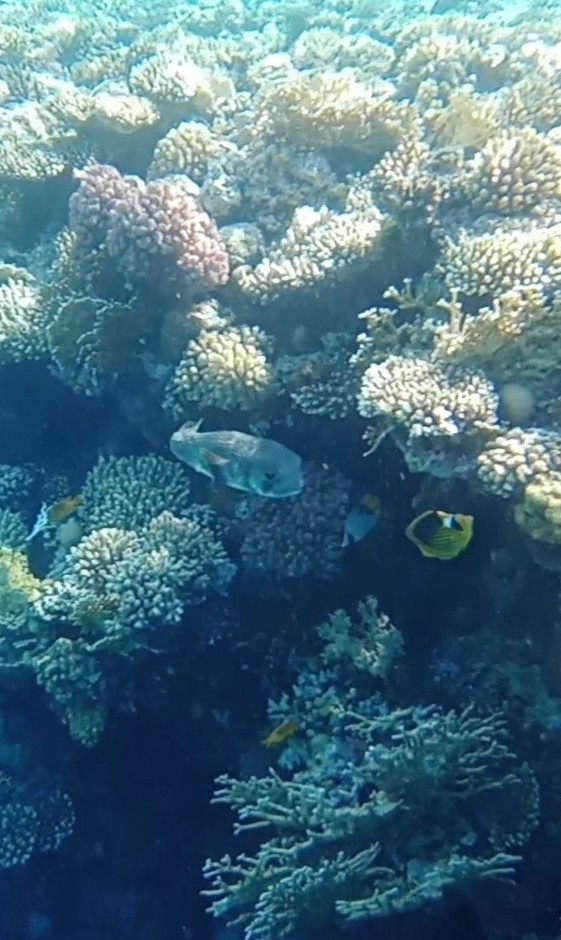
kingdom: Animalia
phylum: Chordata
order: Tetraodontiformes
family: Diodontidae
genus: Diodon
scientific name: Diodon hystrix
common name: Giant porcupinefish
